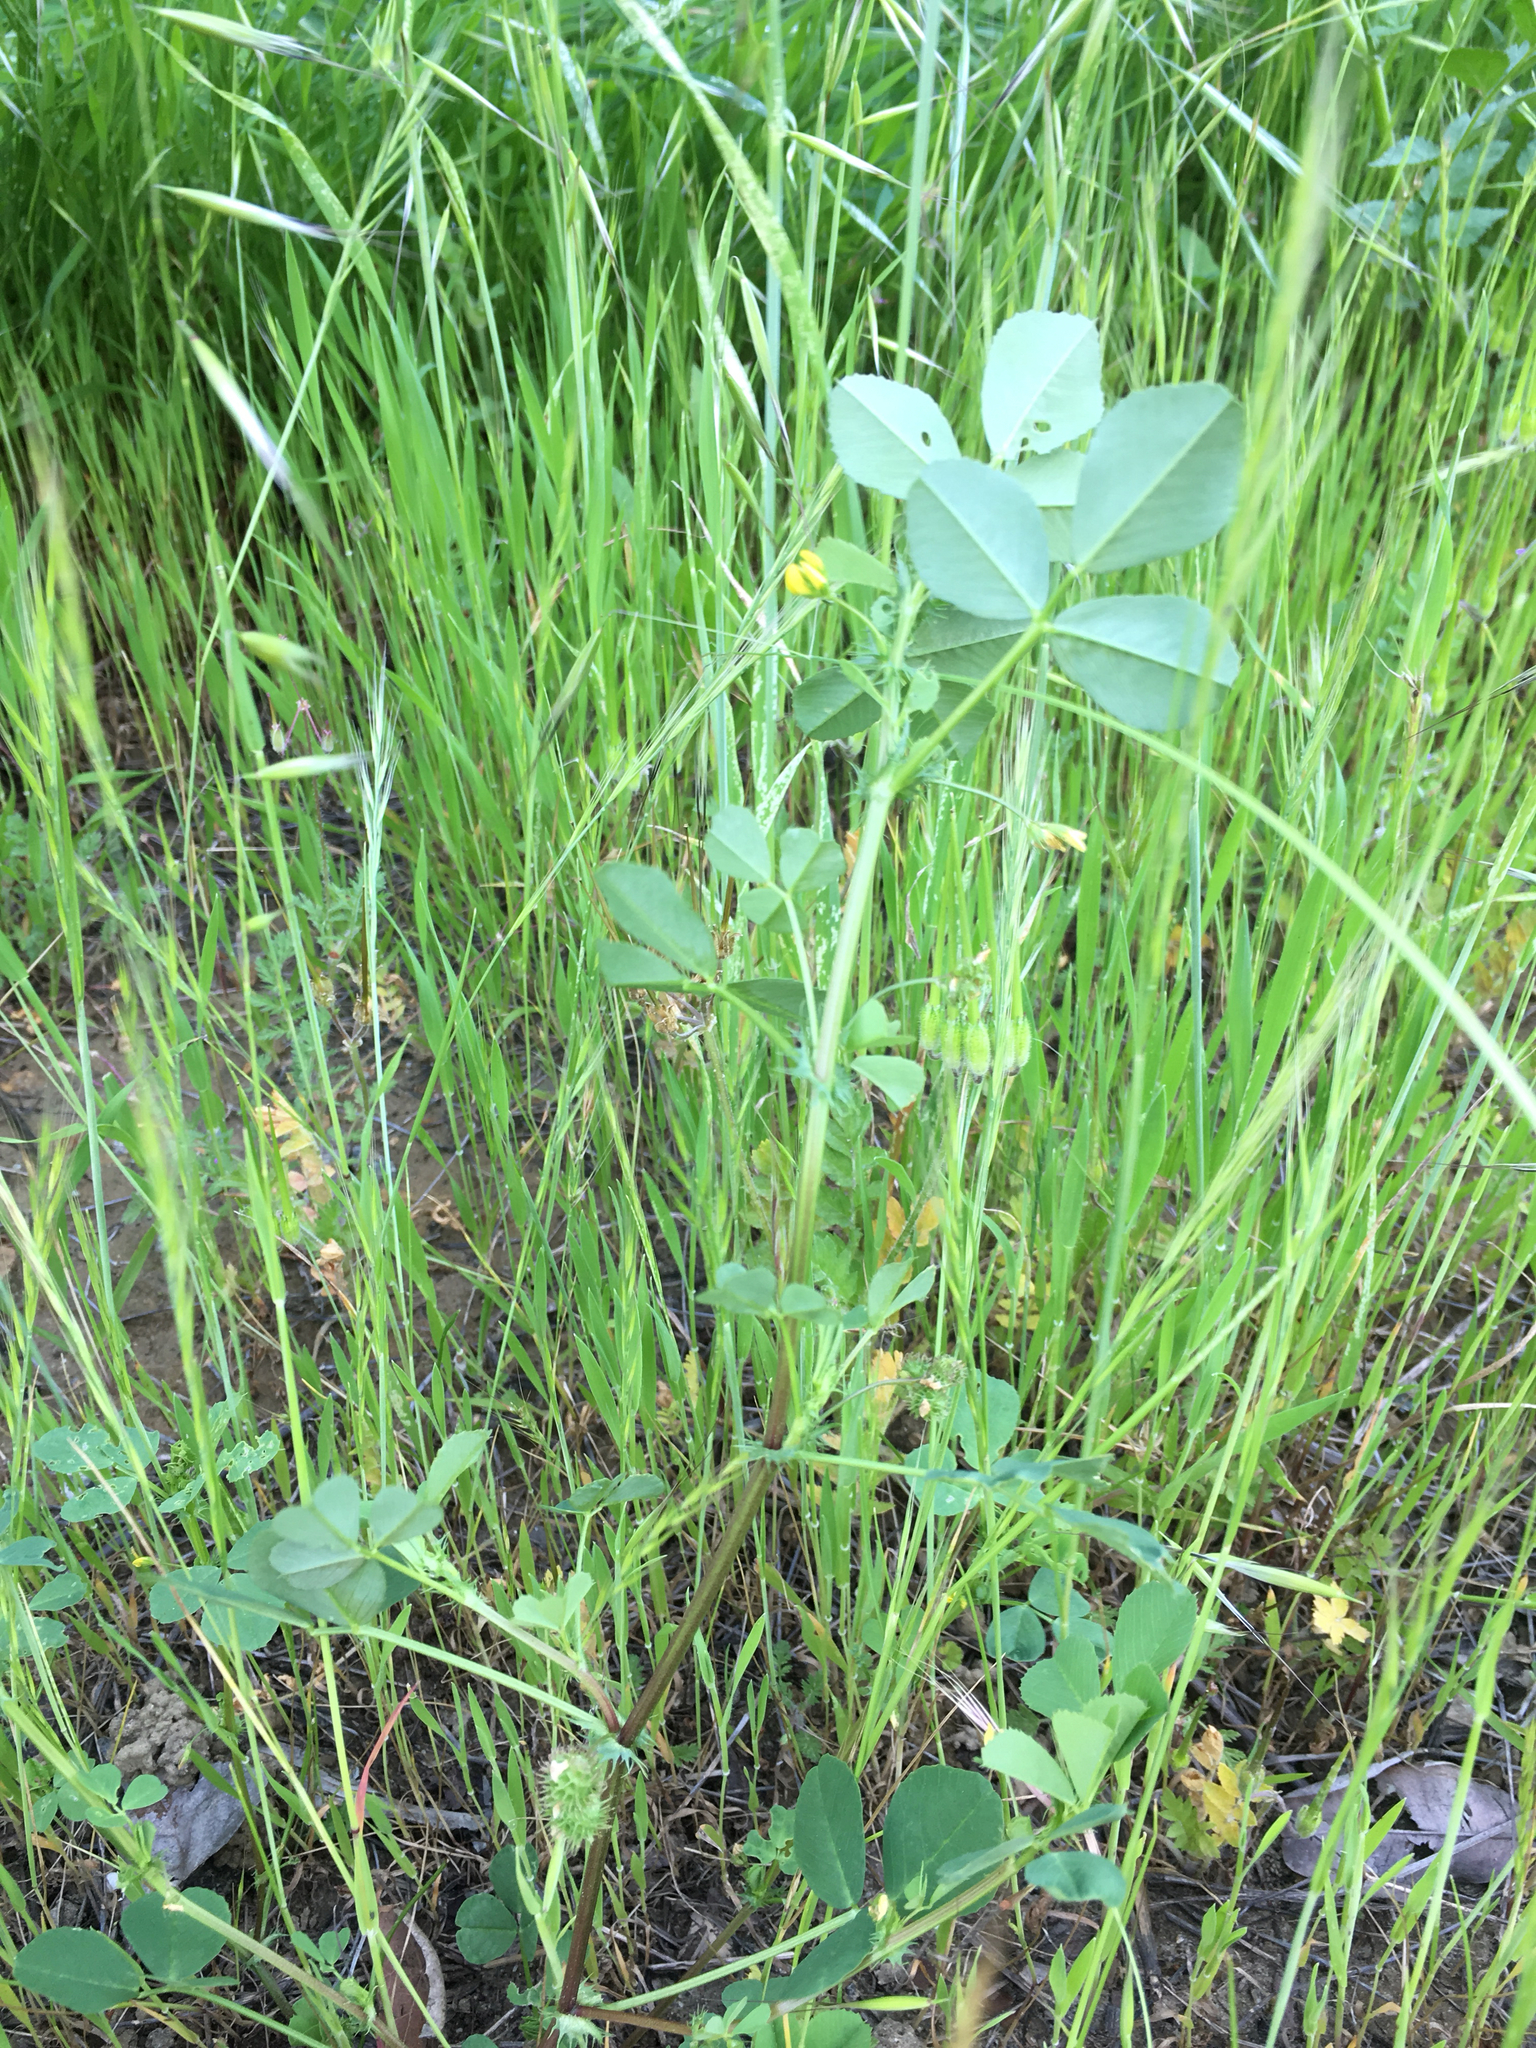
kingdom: Plantae
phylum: Tracheophyta
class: Magnoliopsida
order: Fabales
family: Fabaceae
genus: Medicago
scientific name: Medicago polymorpha
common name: Burclover
